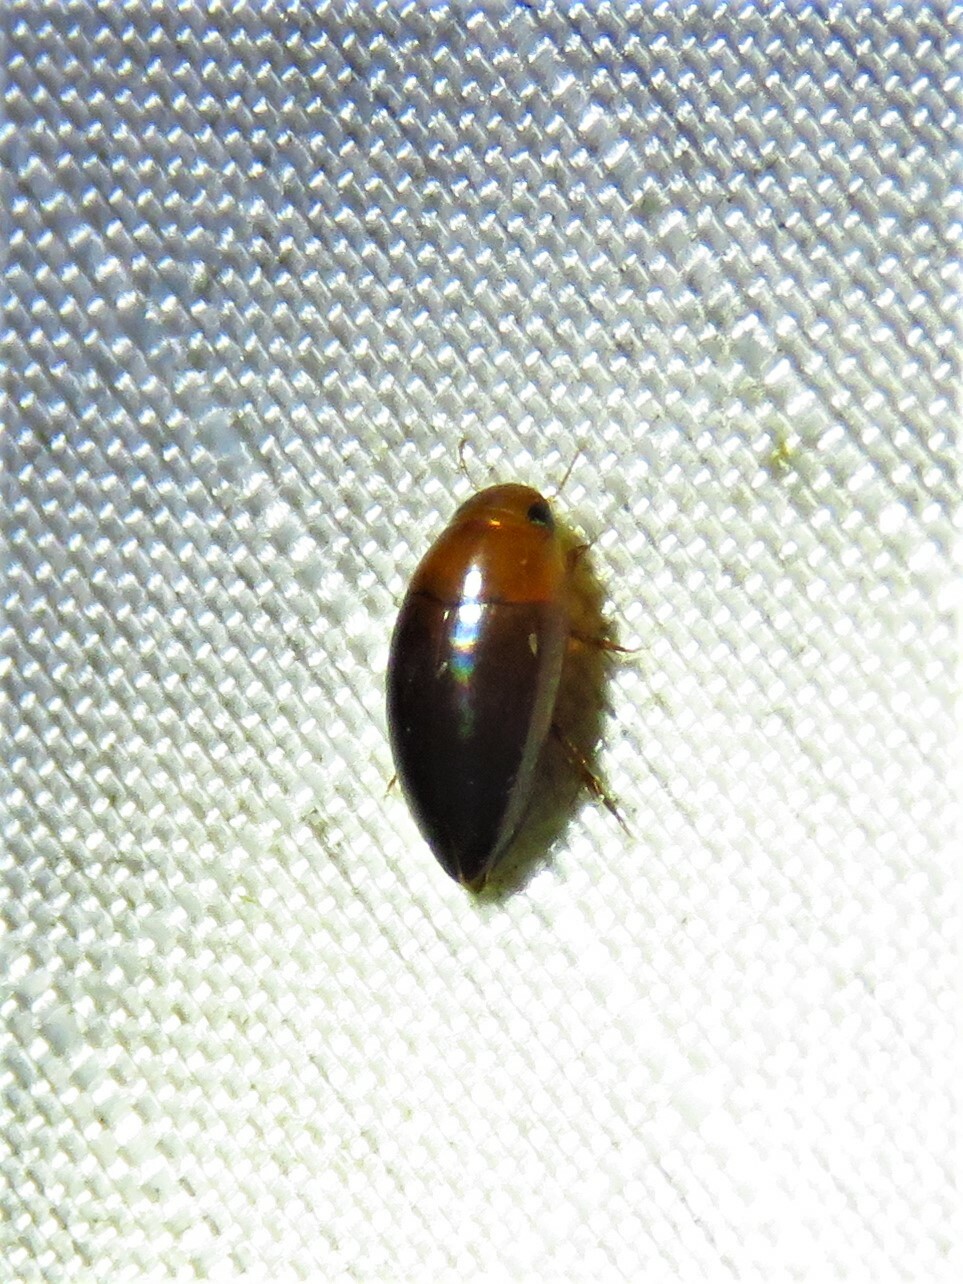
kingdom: Animalia
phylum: Arthropoda
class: Insecta
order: Coleoptera
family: Noteridae
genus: Hydrocanthus
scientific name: Hydrocanthus
